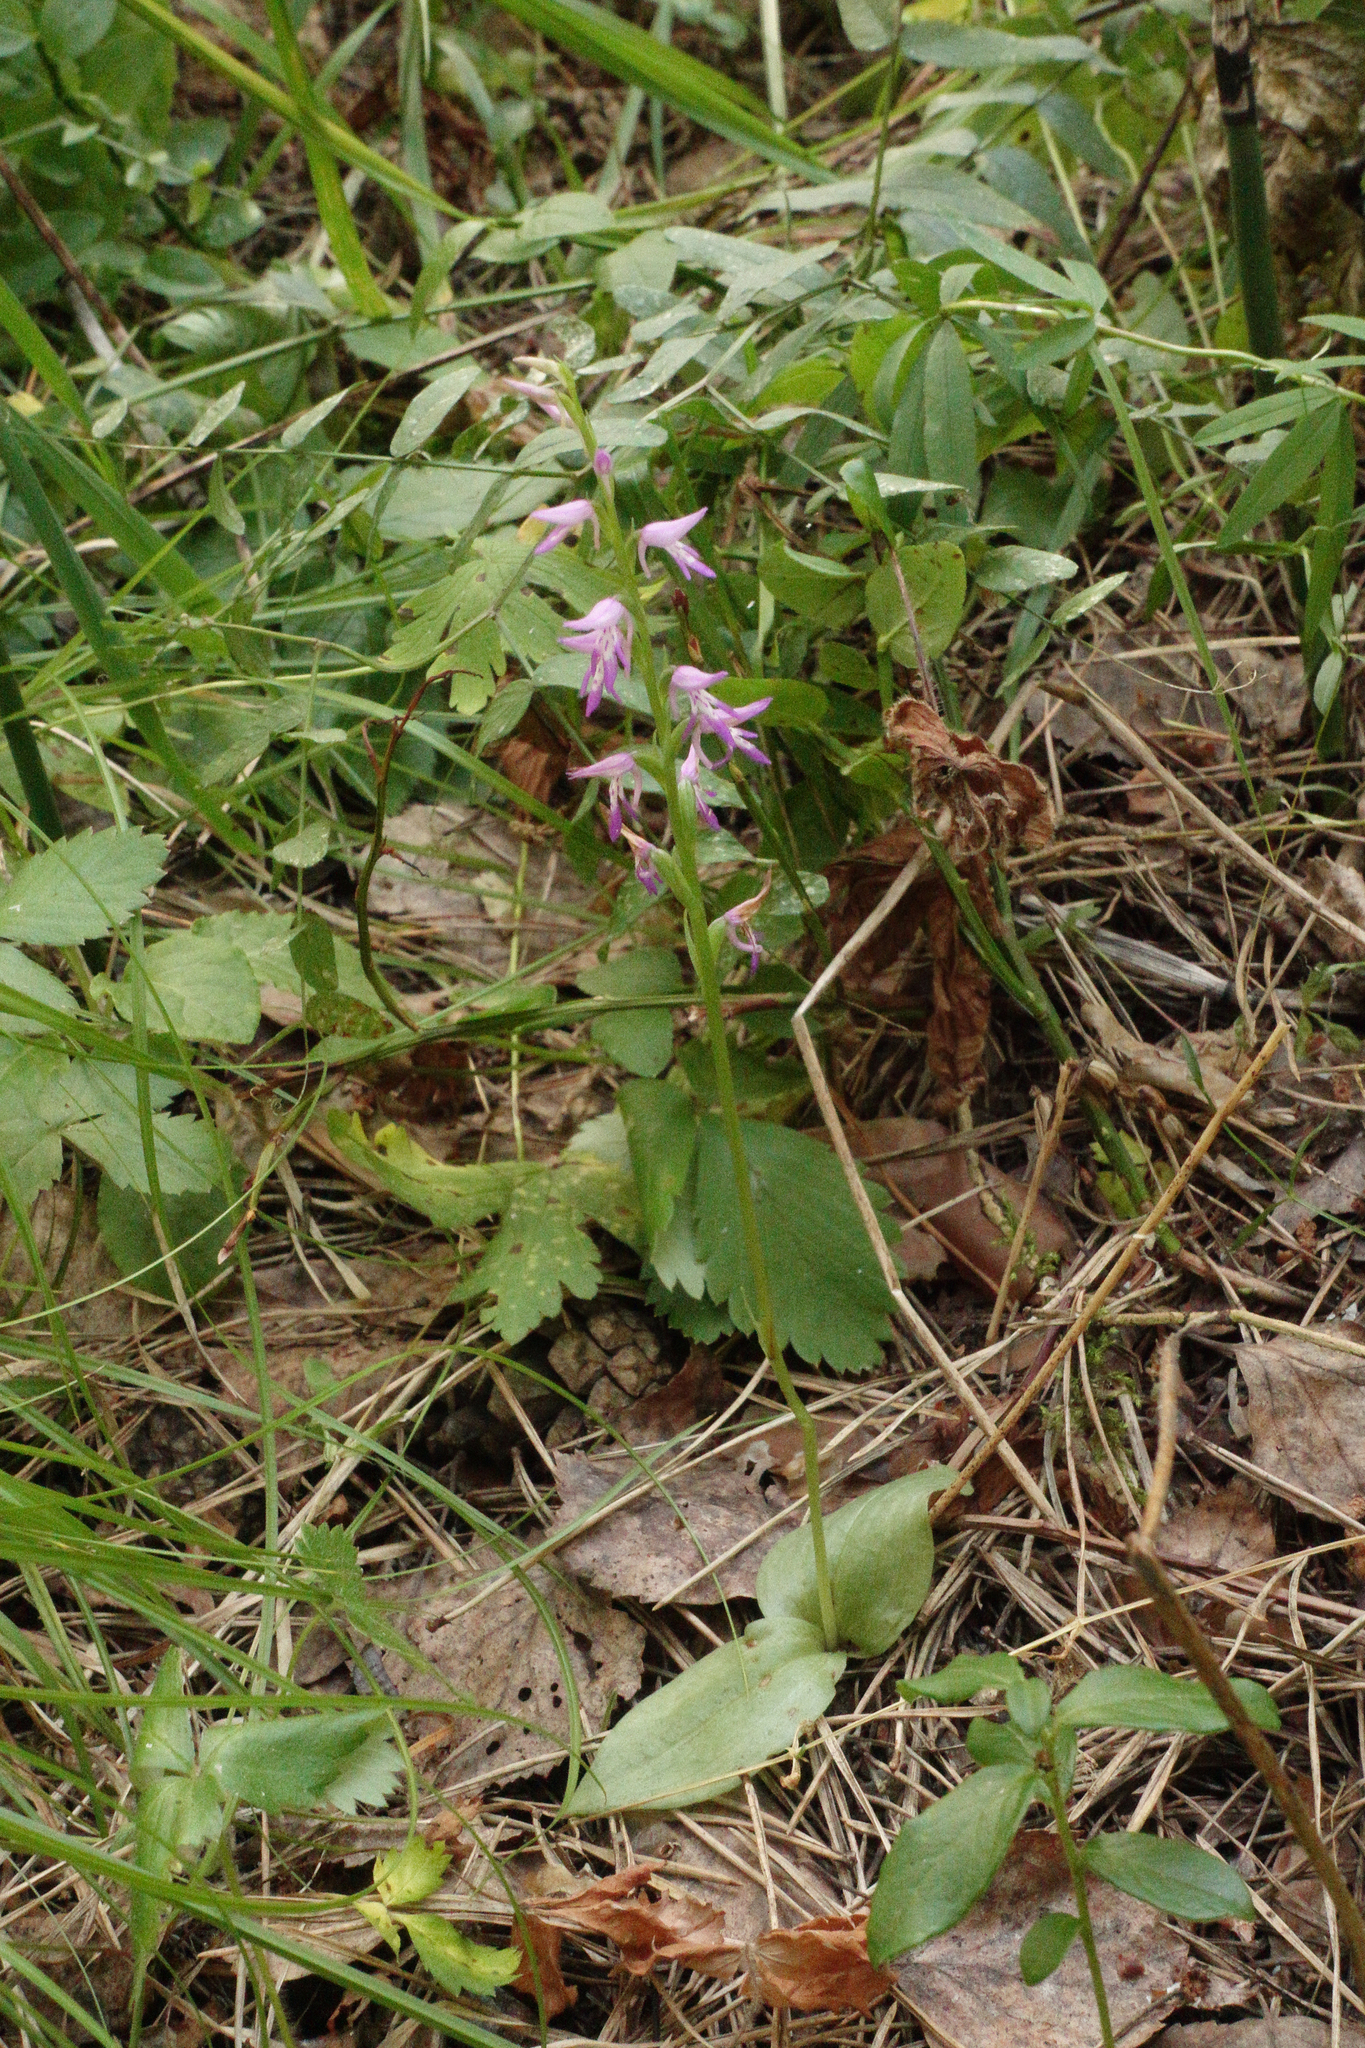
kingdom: Plantae
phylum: Tracheophyta
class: Liliopsida
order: Asparagales
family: Orchidaceae
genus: Hemipilia
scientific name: Hemipilia cucullata
